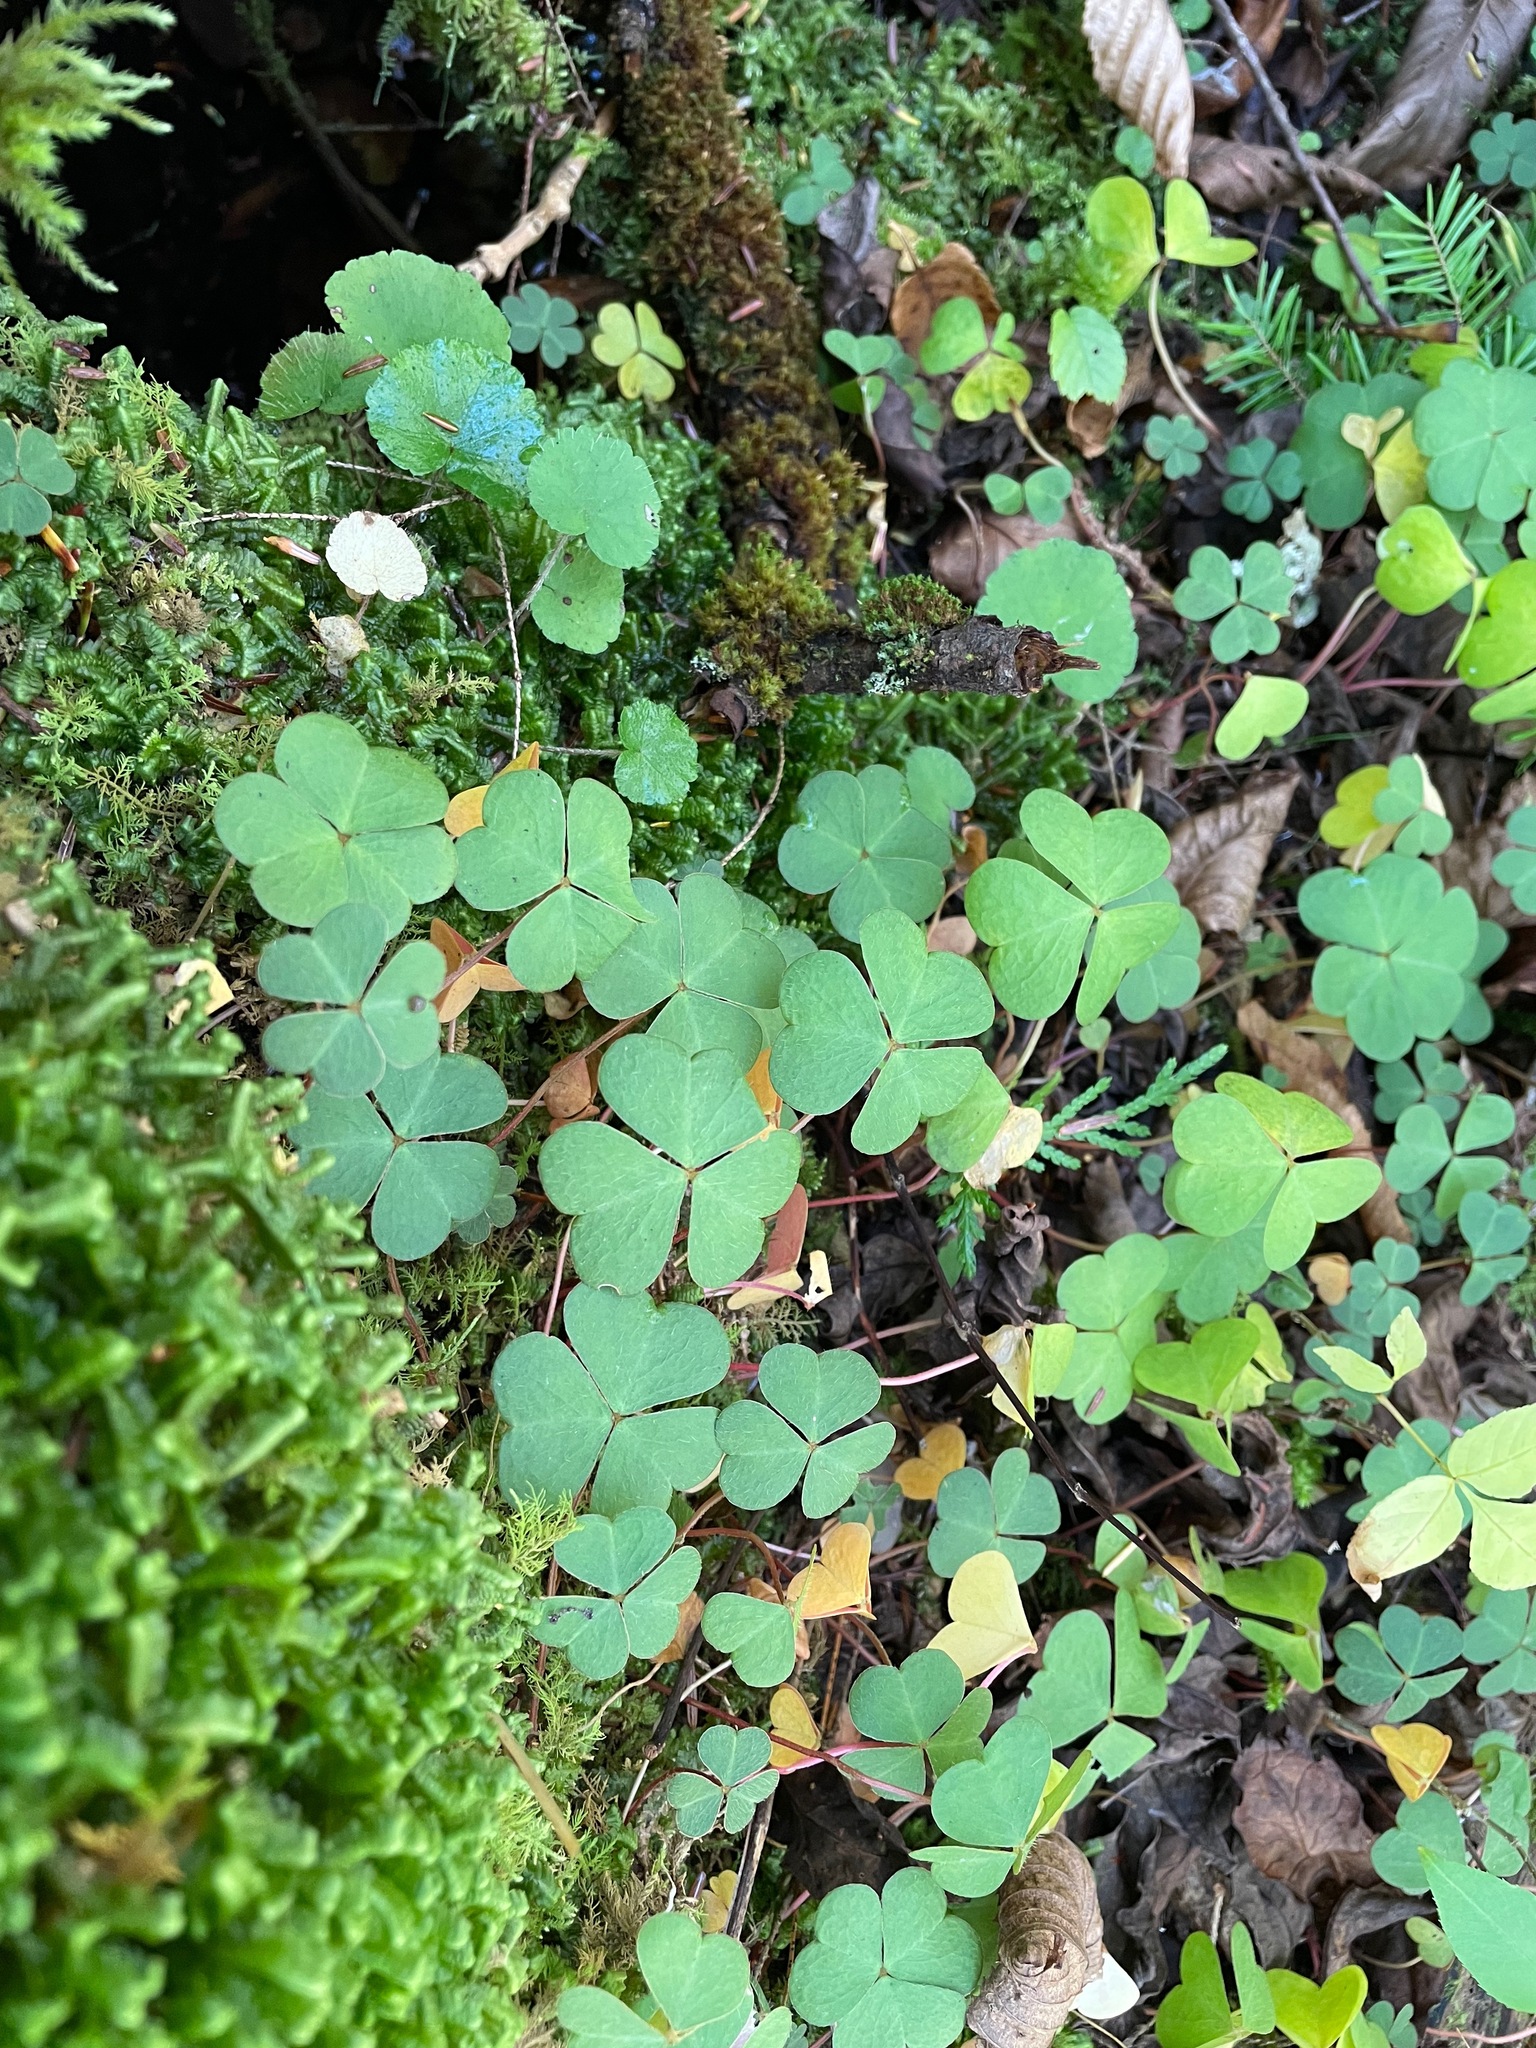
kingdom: Plantae
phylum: Tracheophyta
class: Magnoliopsida
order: Oxalidales
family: Oxalidaceae
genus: Oxalis
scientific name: Oxalis montana
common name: American wood-sorrel
